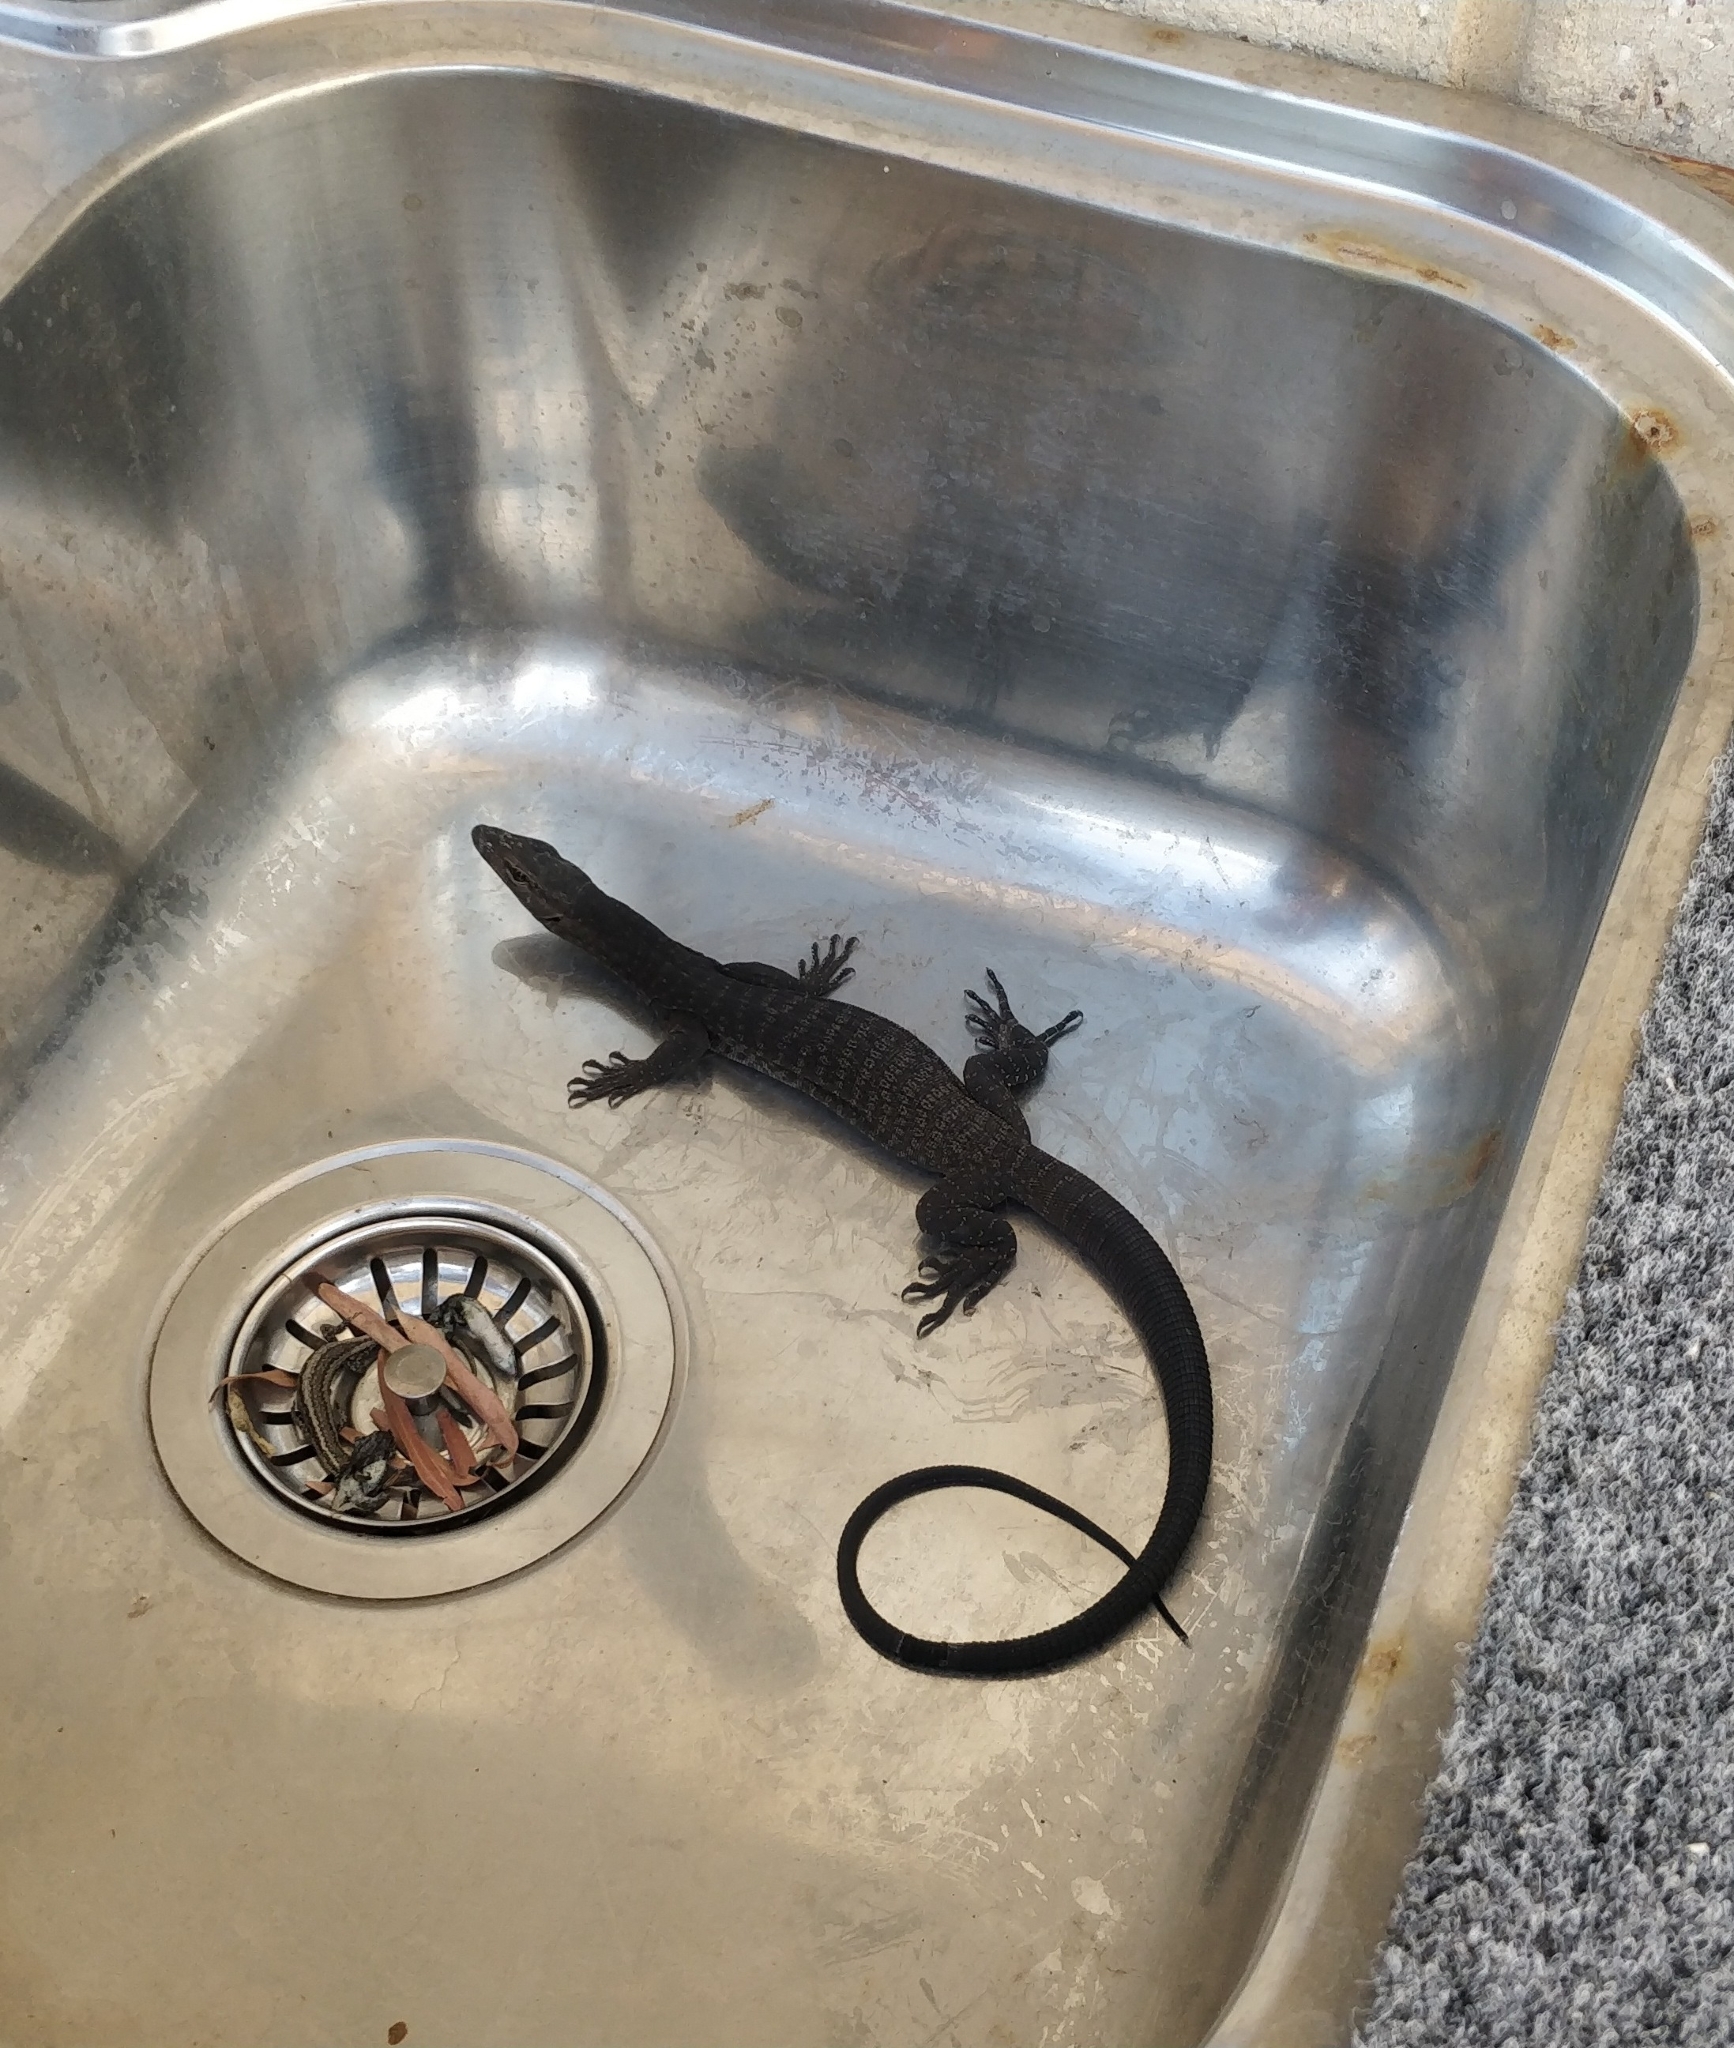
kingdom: Animalia
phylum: Chordata
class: Squamata
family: Varanidae
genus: Varanus
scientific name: Varanus tristis
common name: Arid monitor
